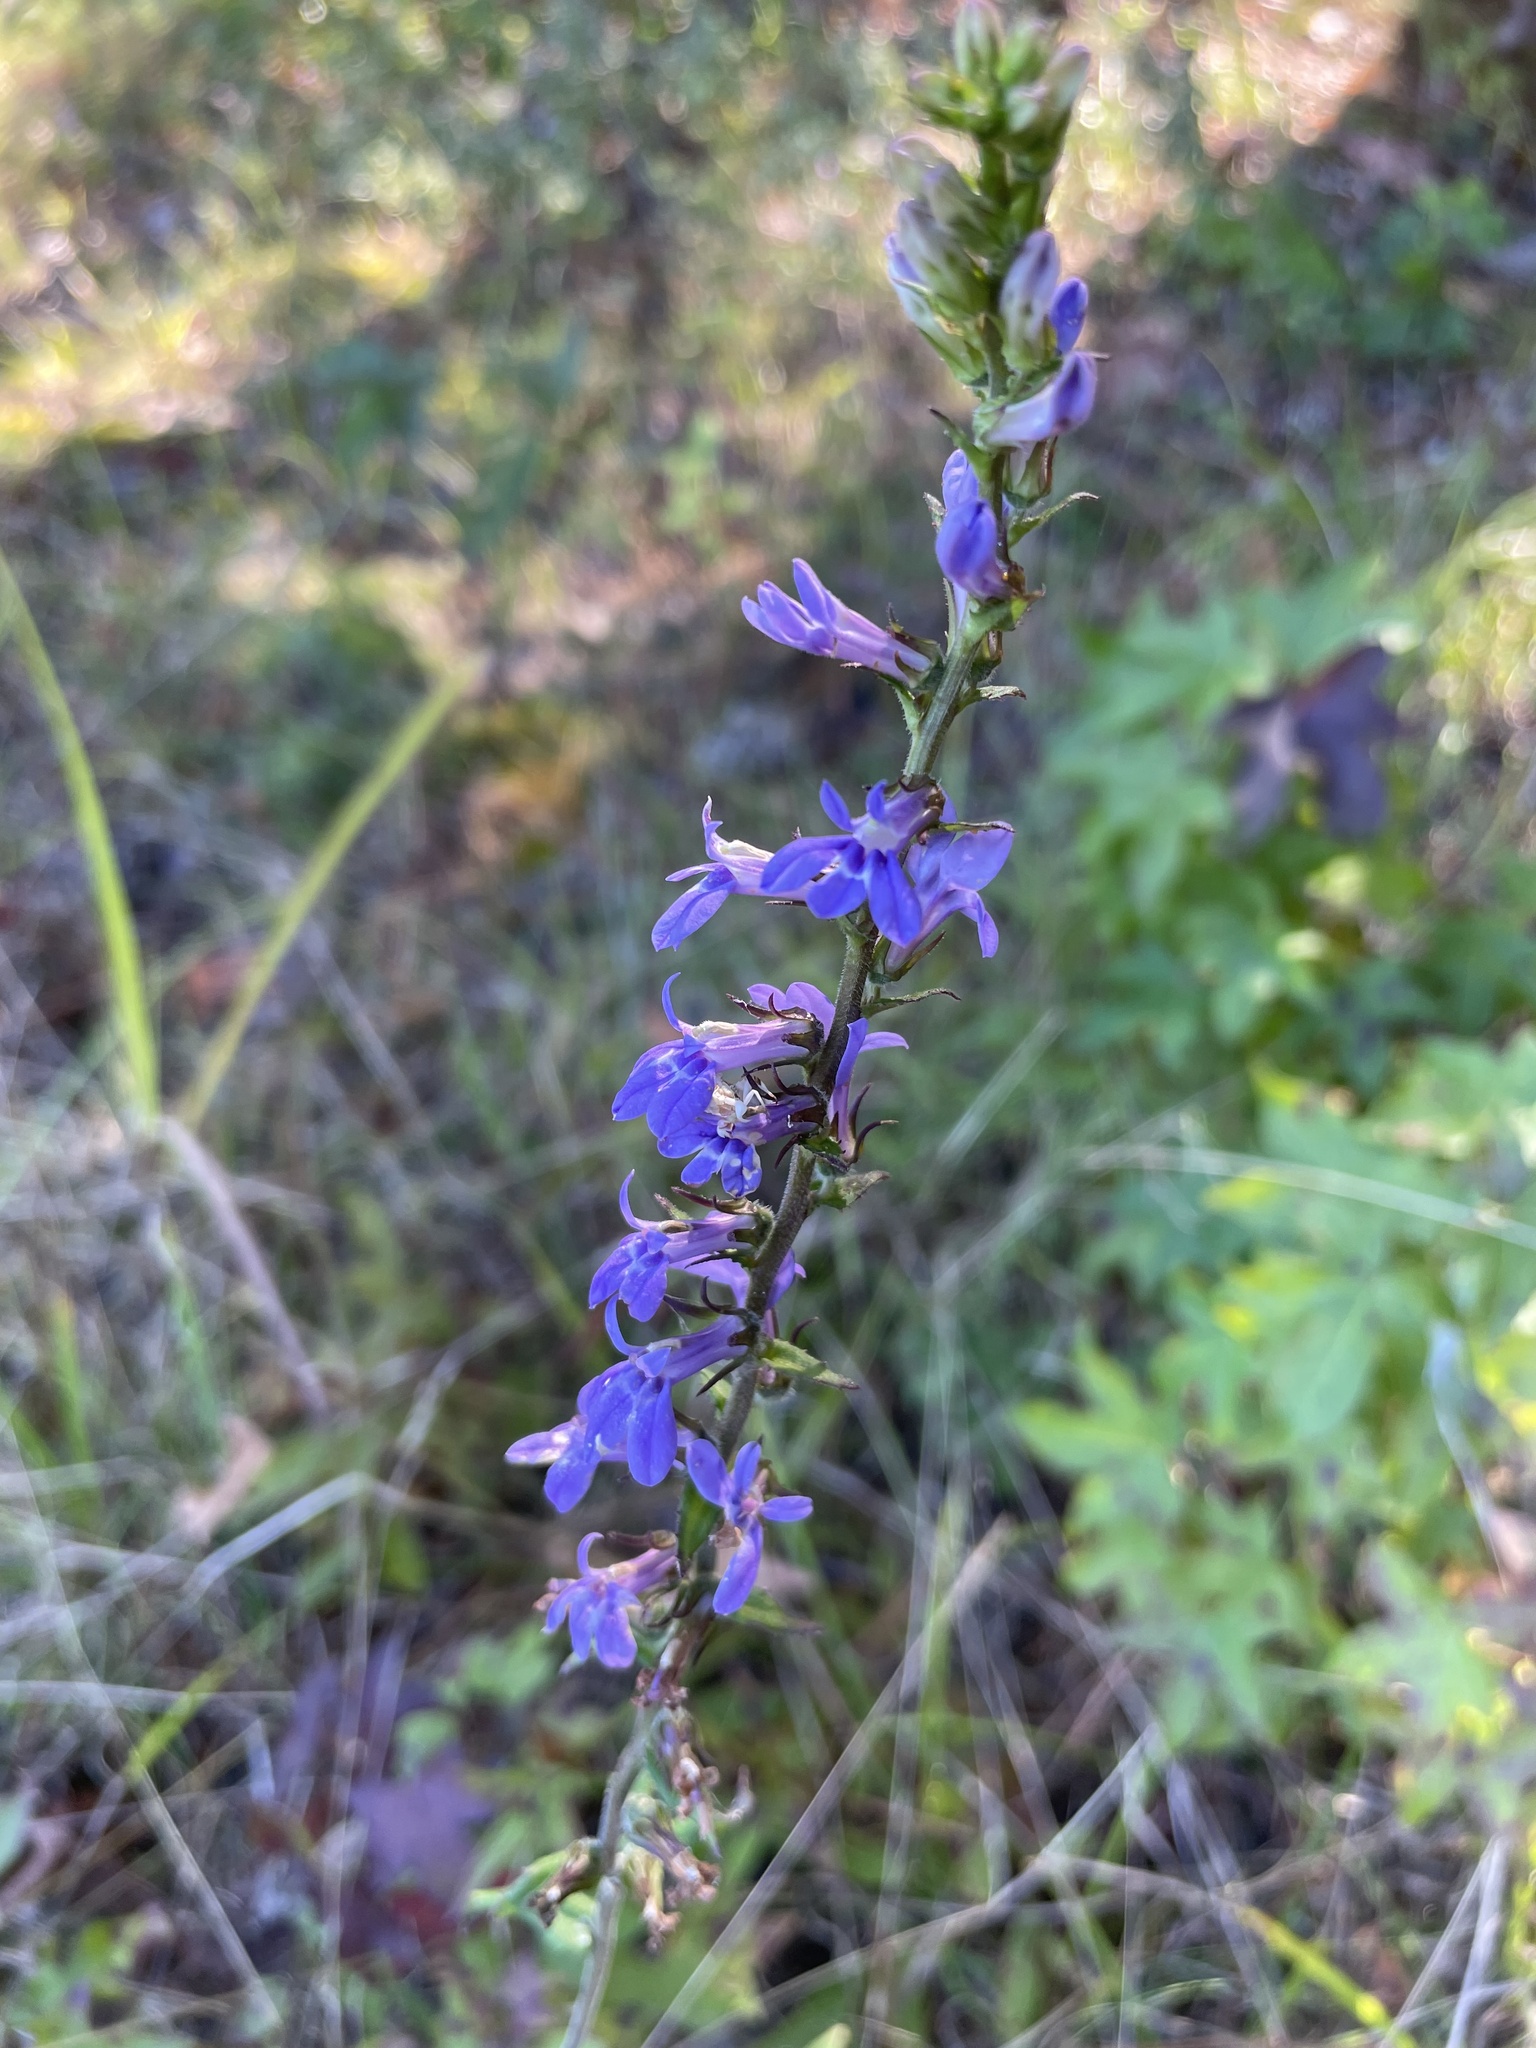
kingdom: Plantae
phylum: Tracheophyta
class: Magnoliopsida
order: Asterales
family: Campanulaceae
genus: Lobelia
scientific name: Lobelia puberula
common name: Purple dewdrop
